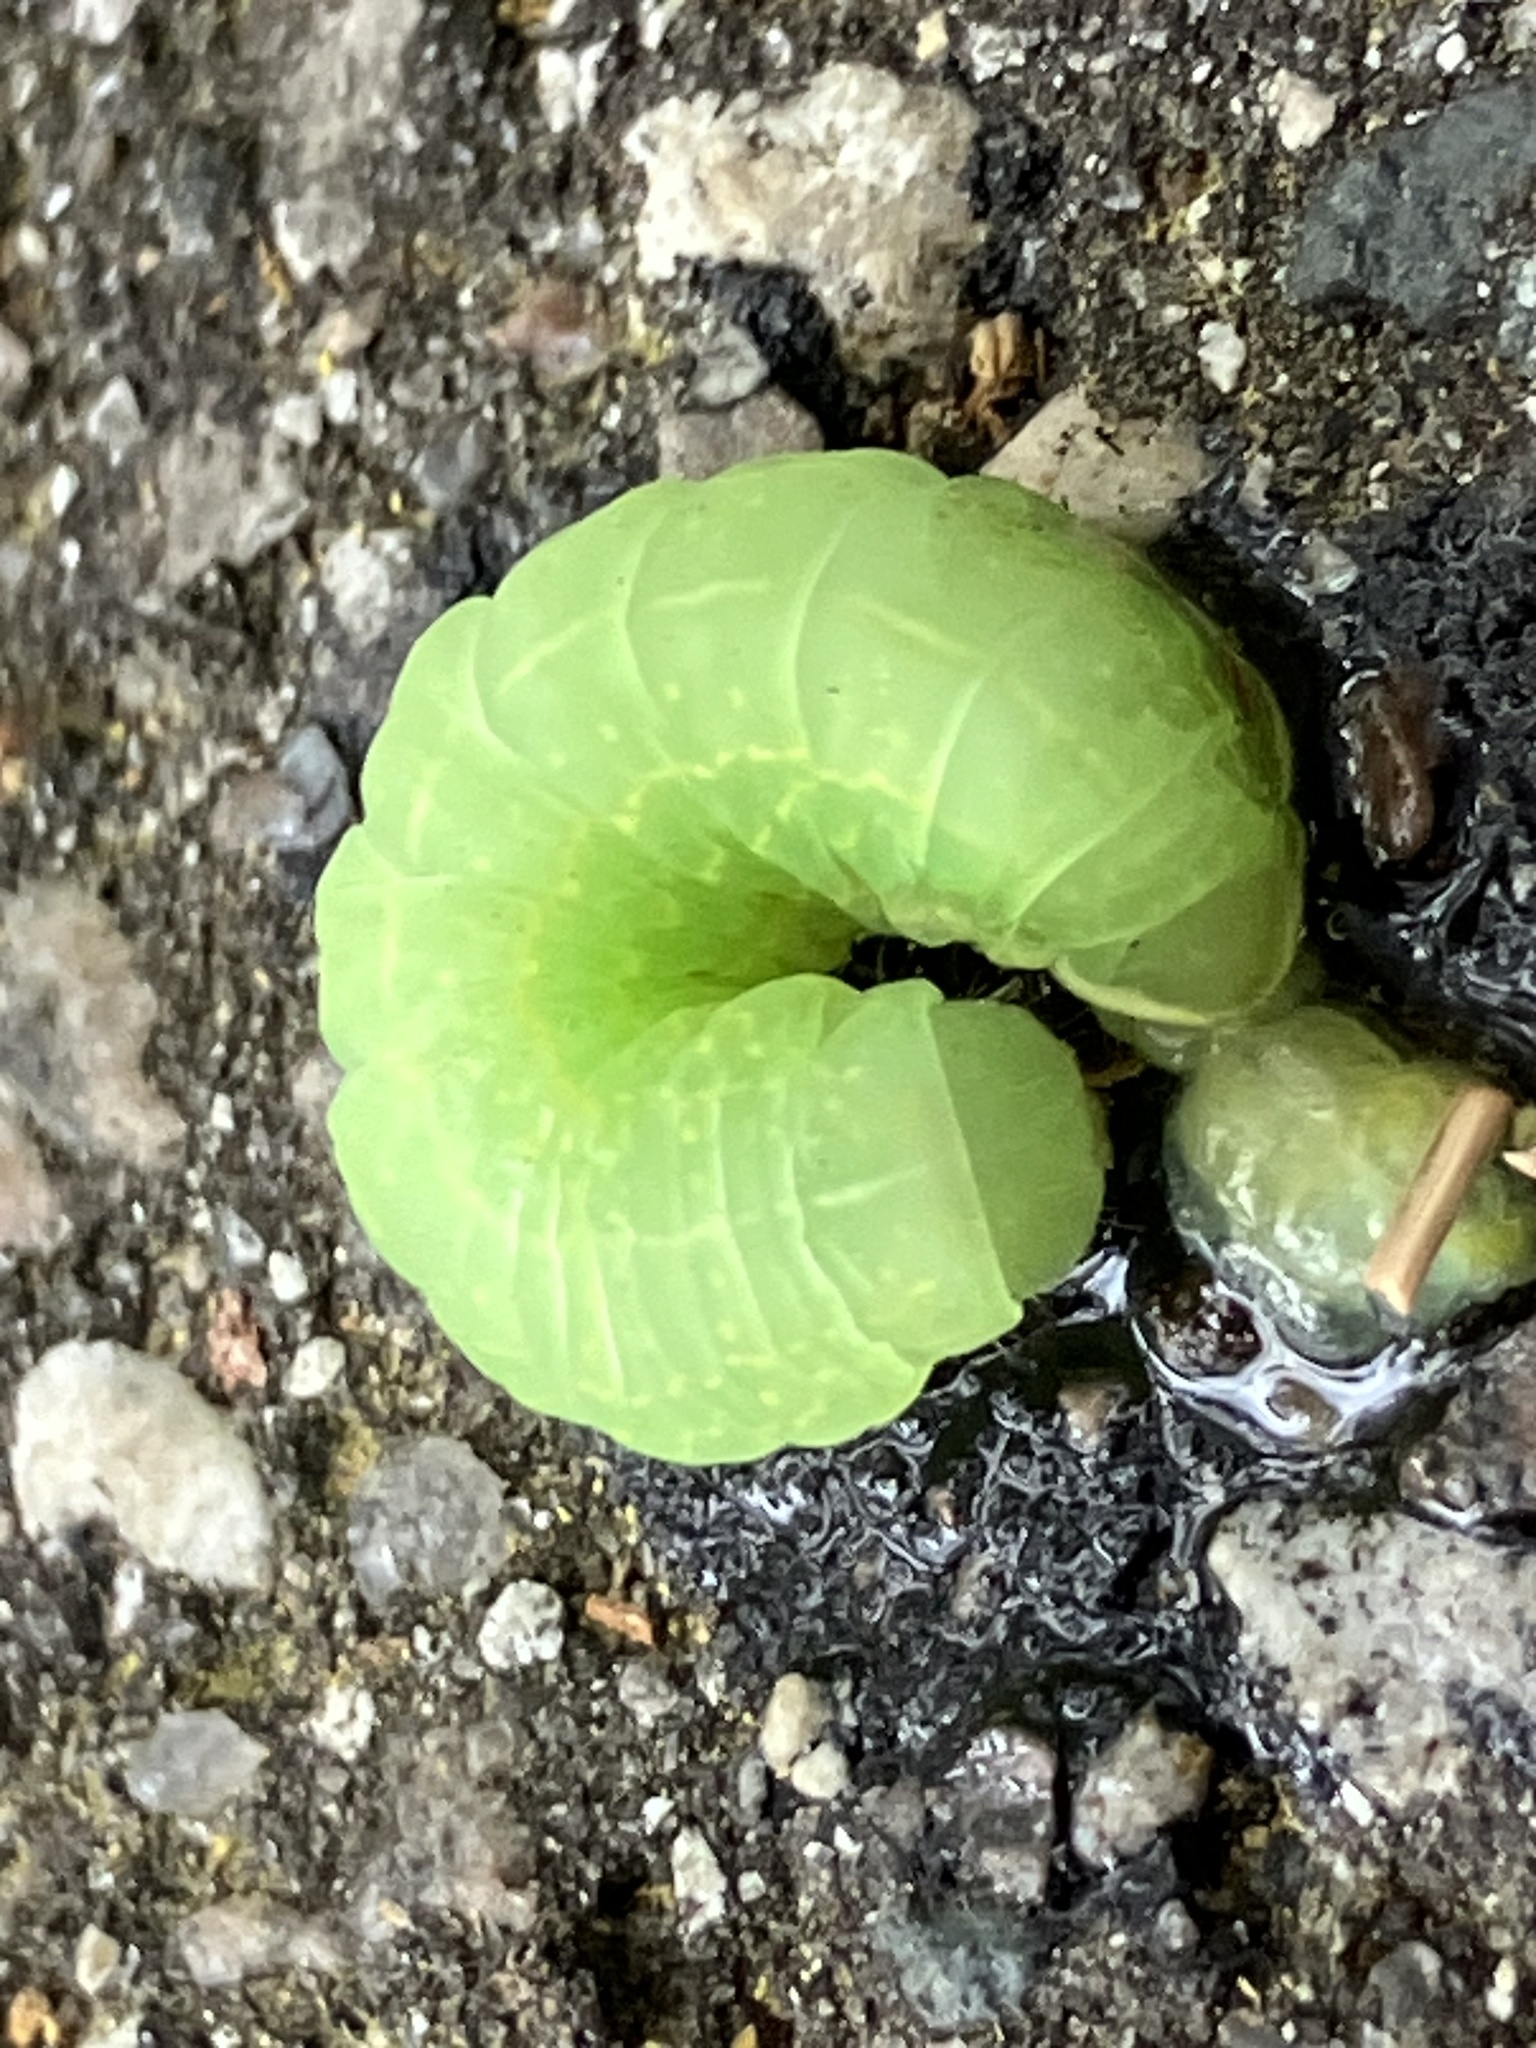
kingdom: Animalia
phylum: Arthropoda
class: Insecta
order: Lepidoptera
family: Noctuidae
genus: Psaphida
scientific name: Psaphida resumens
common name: Figure-eight sallow
